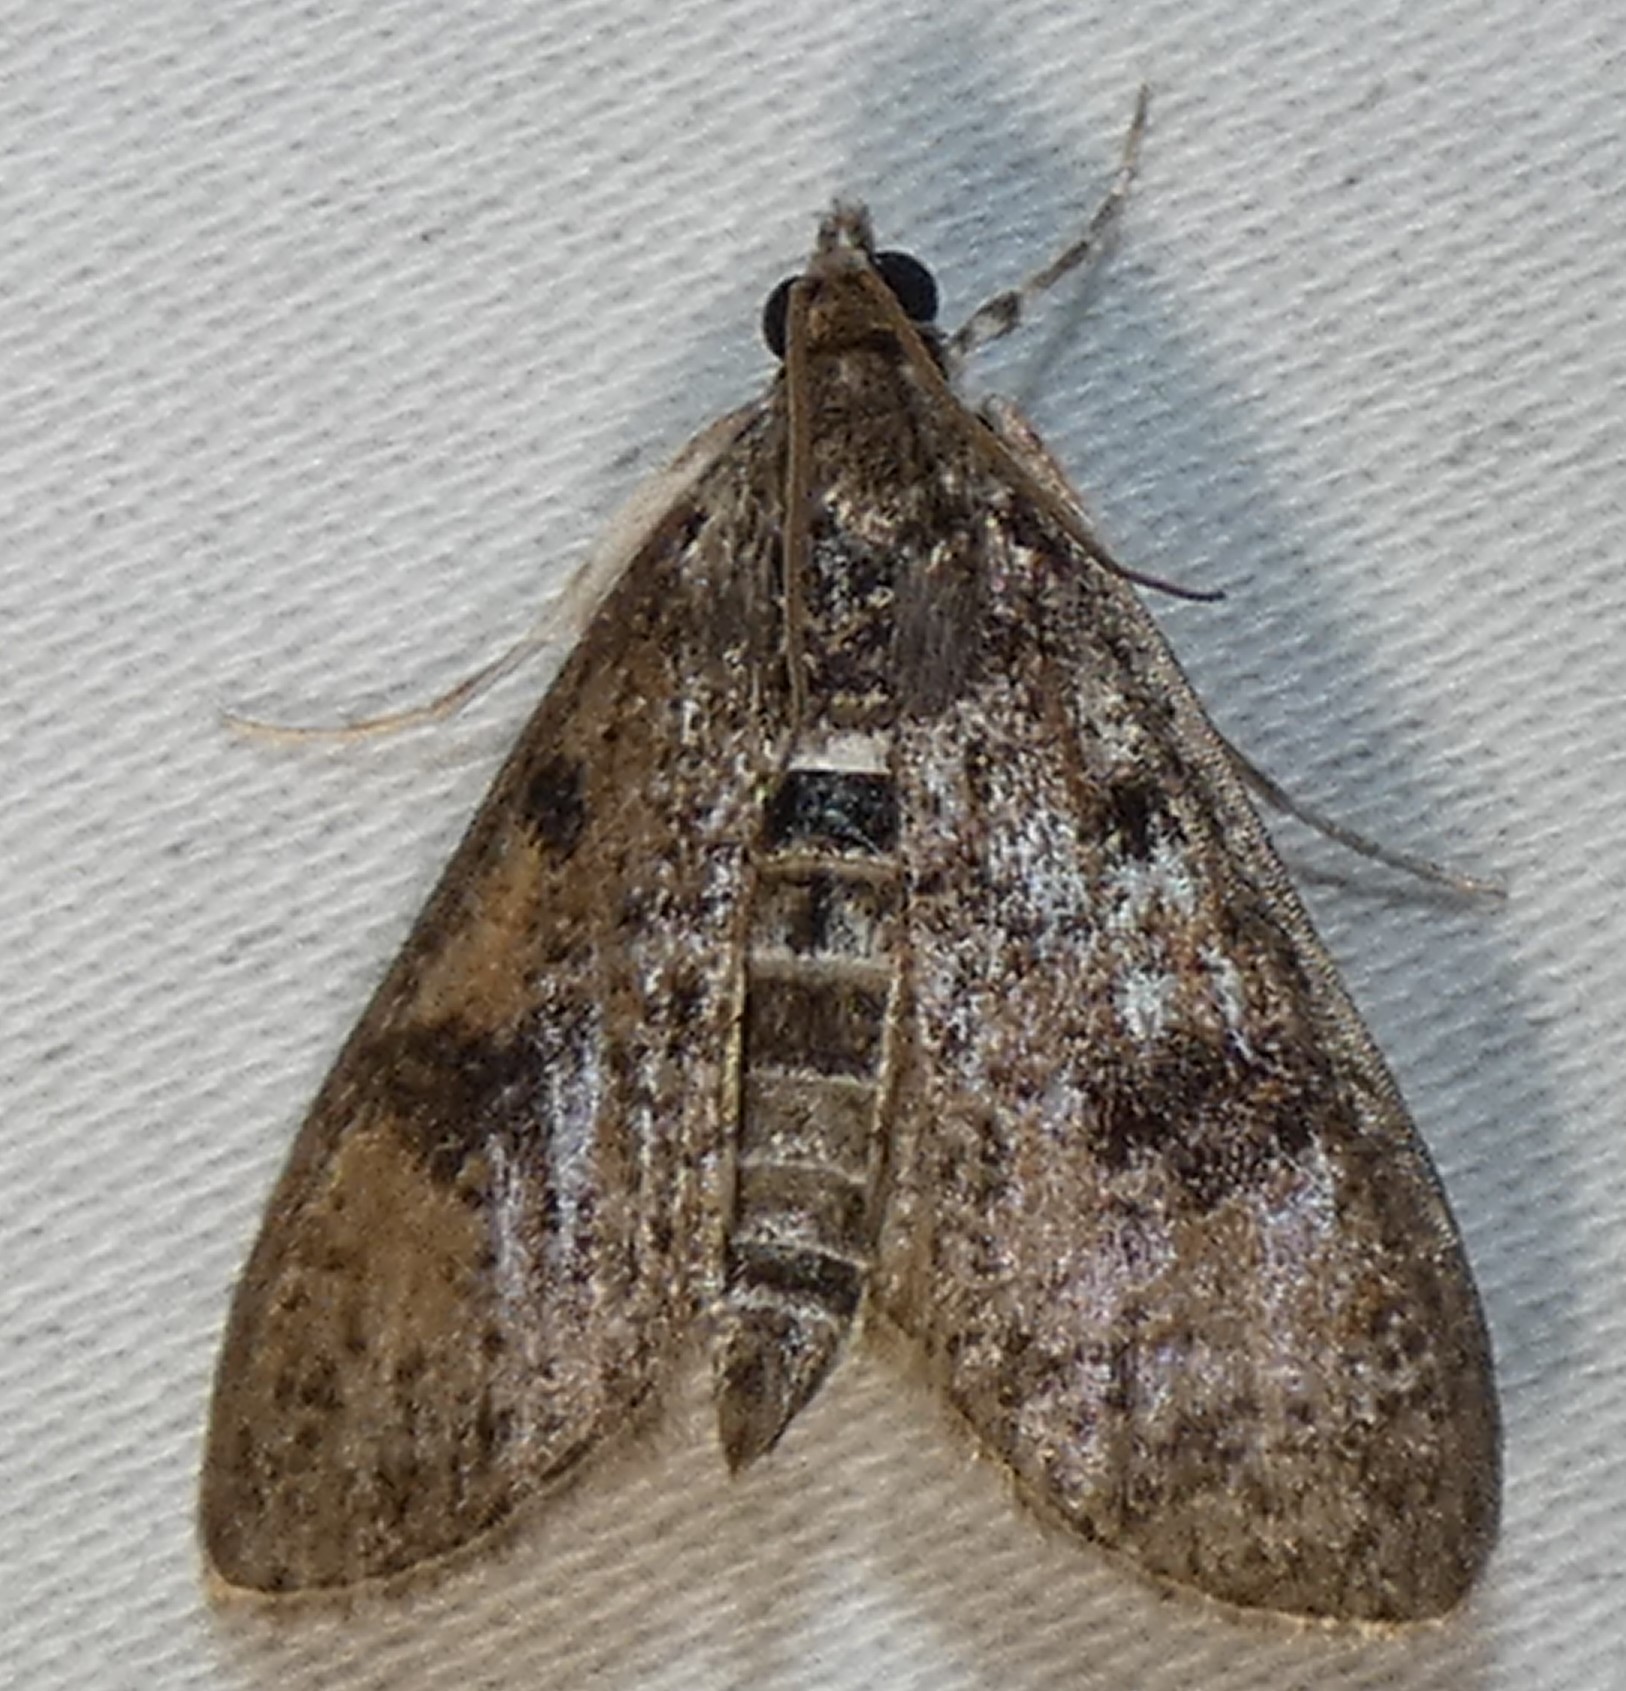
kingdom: Animalia
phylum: Arthropoda
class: Insecta
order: Lepidoptera
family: Crambidae
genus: Palpita
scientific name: Palpita magniferalis
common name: Splendid palpita moth
